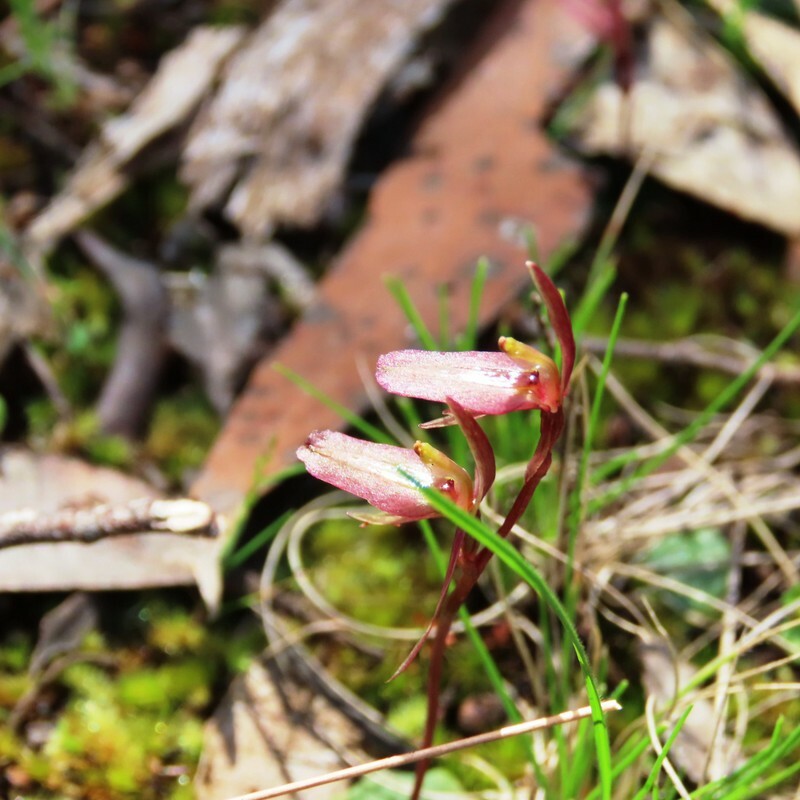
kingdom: Plantae
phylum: Tracheophyta
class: Liliopsida
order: Asparagales
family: Orchidaceae
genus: Cyrtostylis
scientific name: Cyrtostylis reniformis
